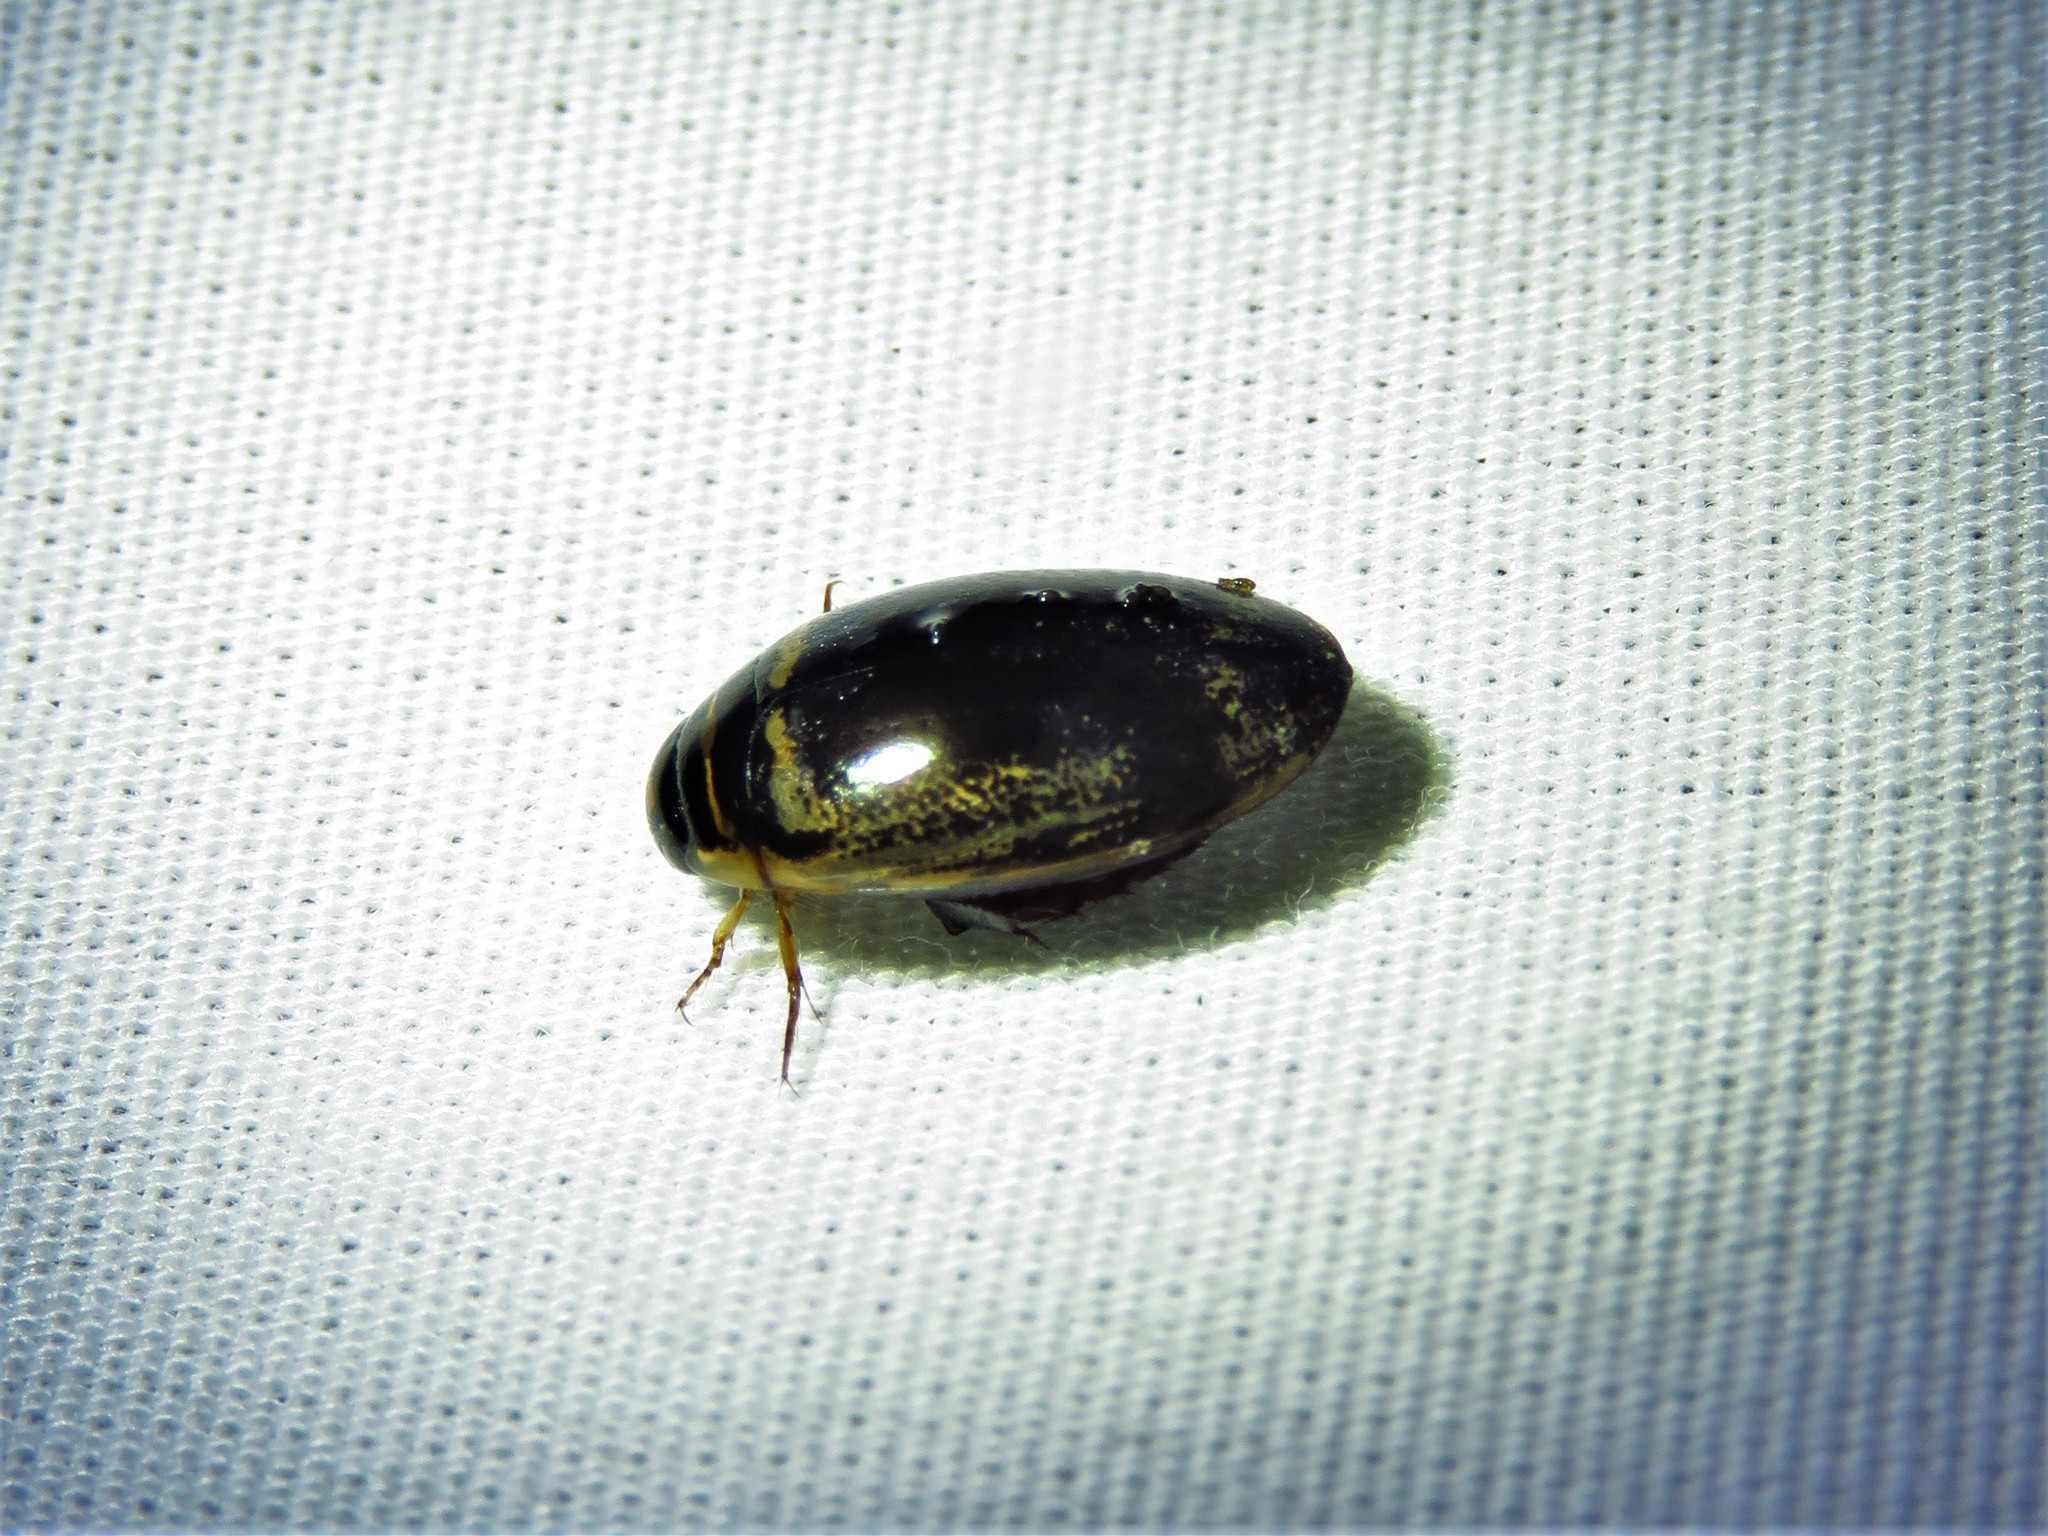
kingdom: Animalia
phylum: Arthropoda
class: Insecta
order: Coleoptera
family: Dytiscidae
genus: Thermonectus
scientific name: Thermonectus basillaris
